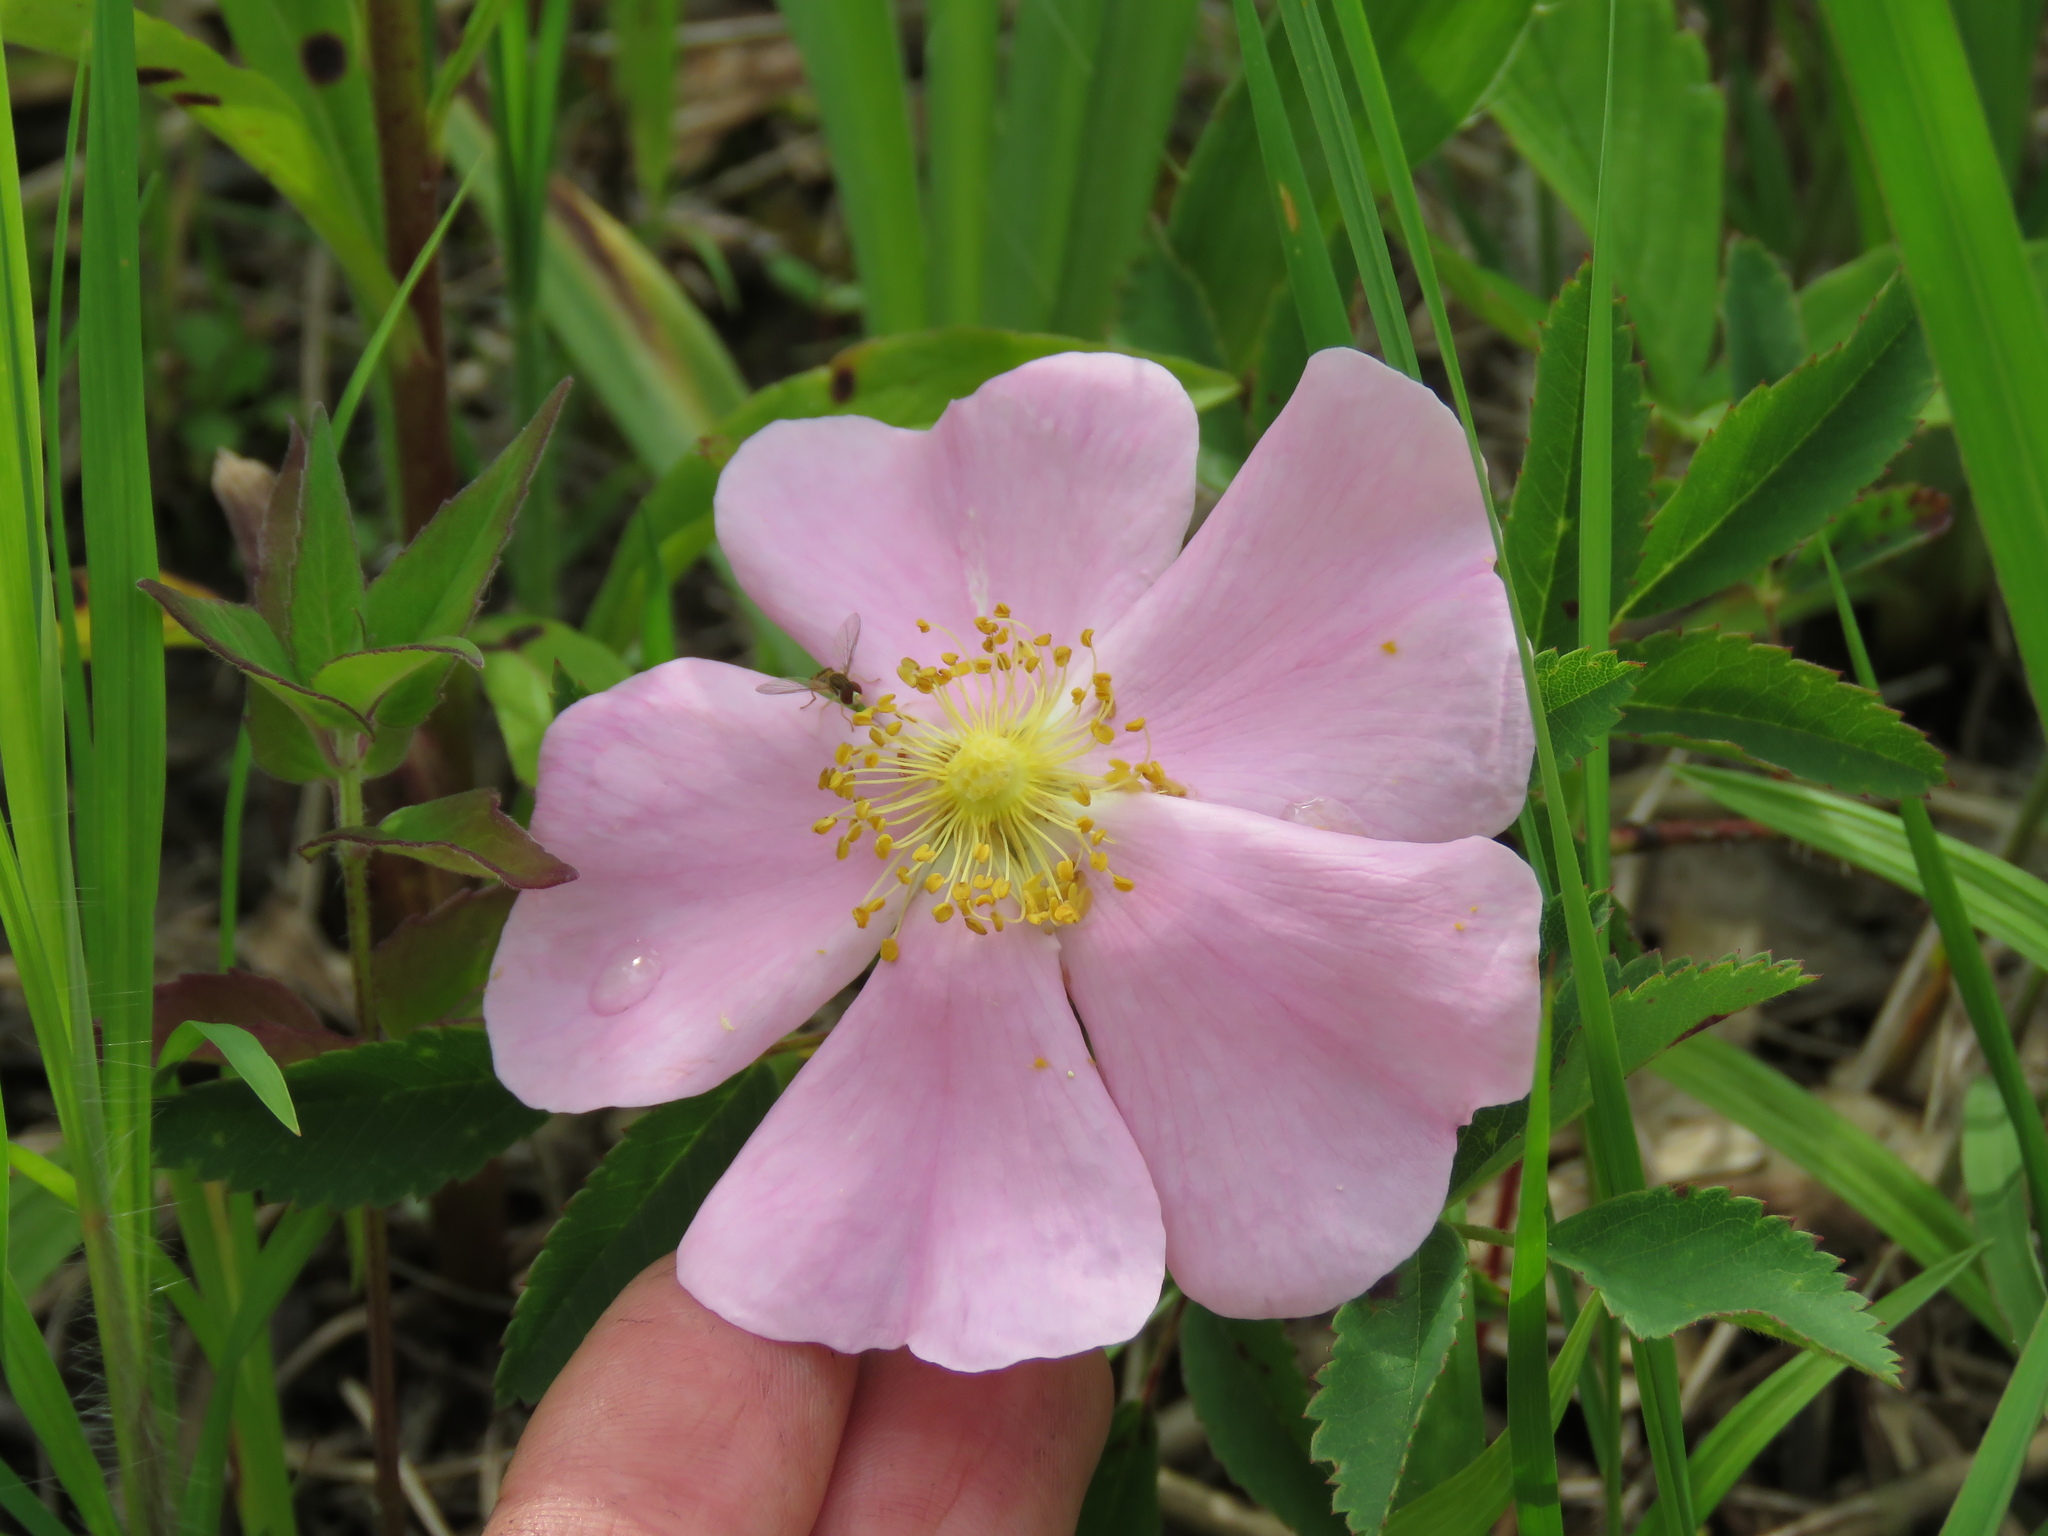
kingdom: Animalia
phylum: Arthropoda
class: Insecta
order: Diptera
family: Syrphidae
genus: Toxomerus
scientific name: Toxomerus
